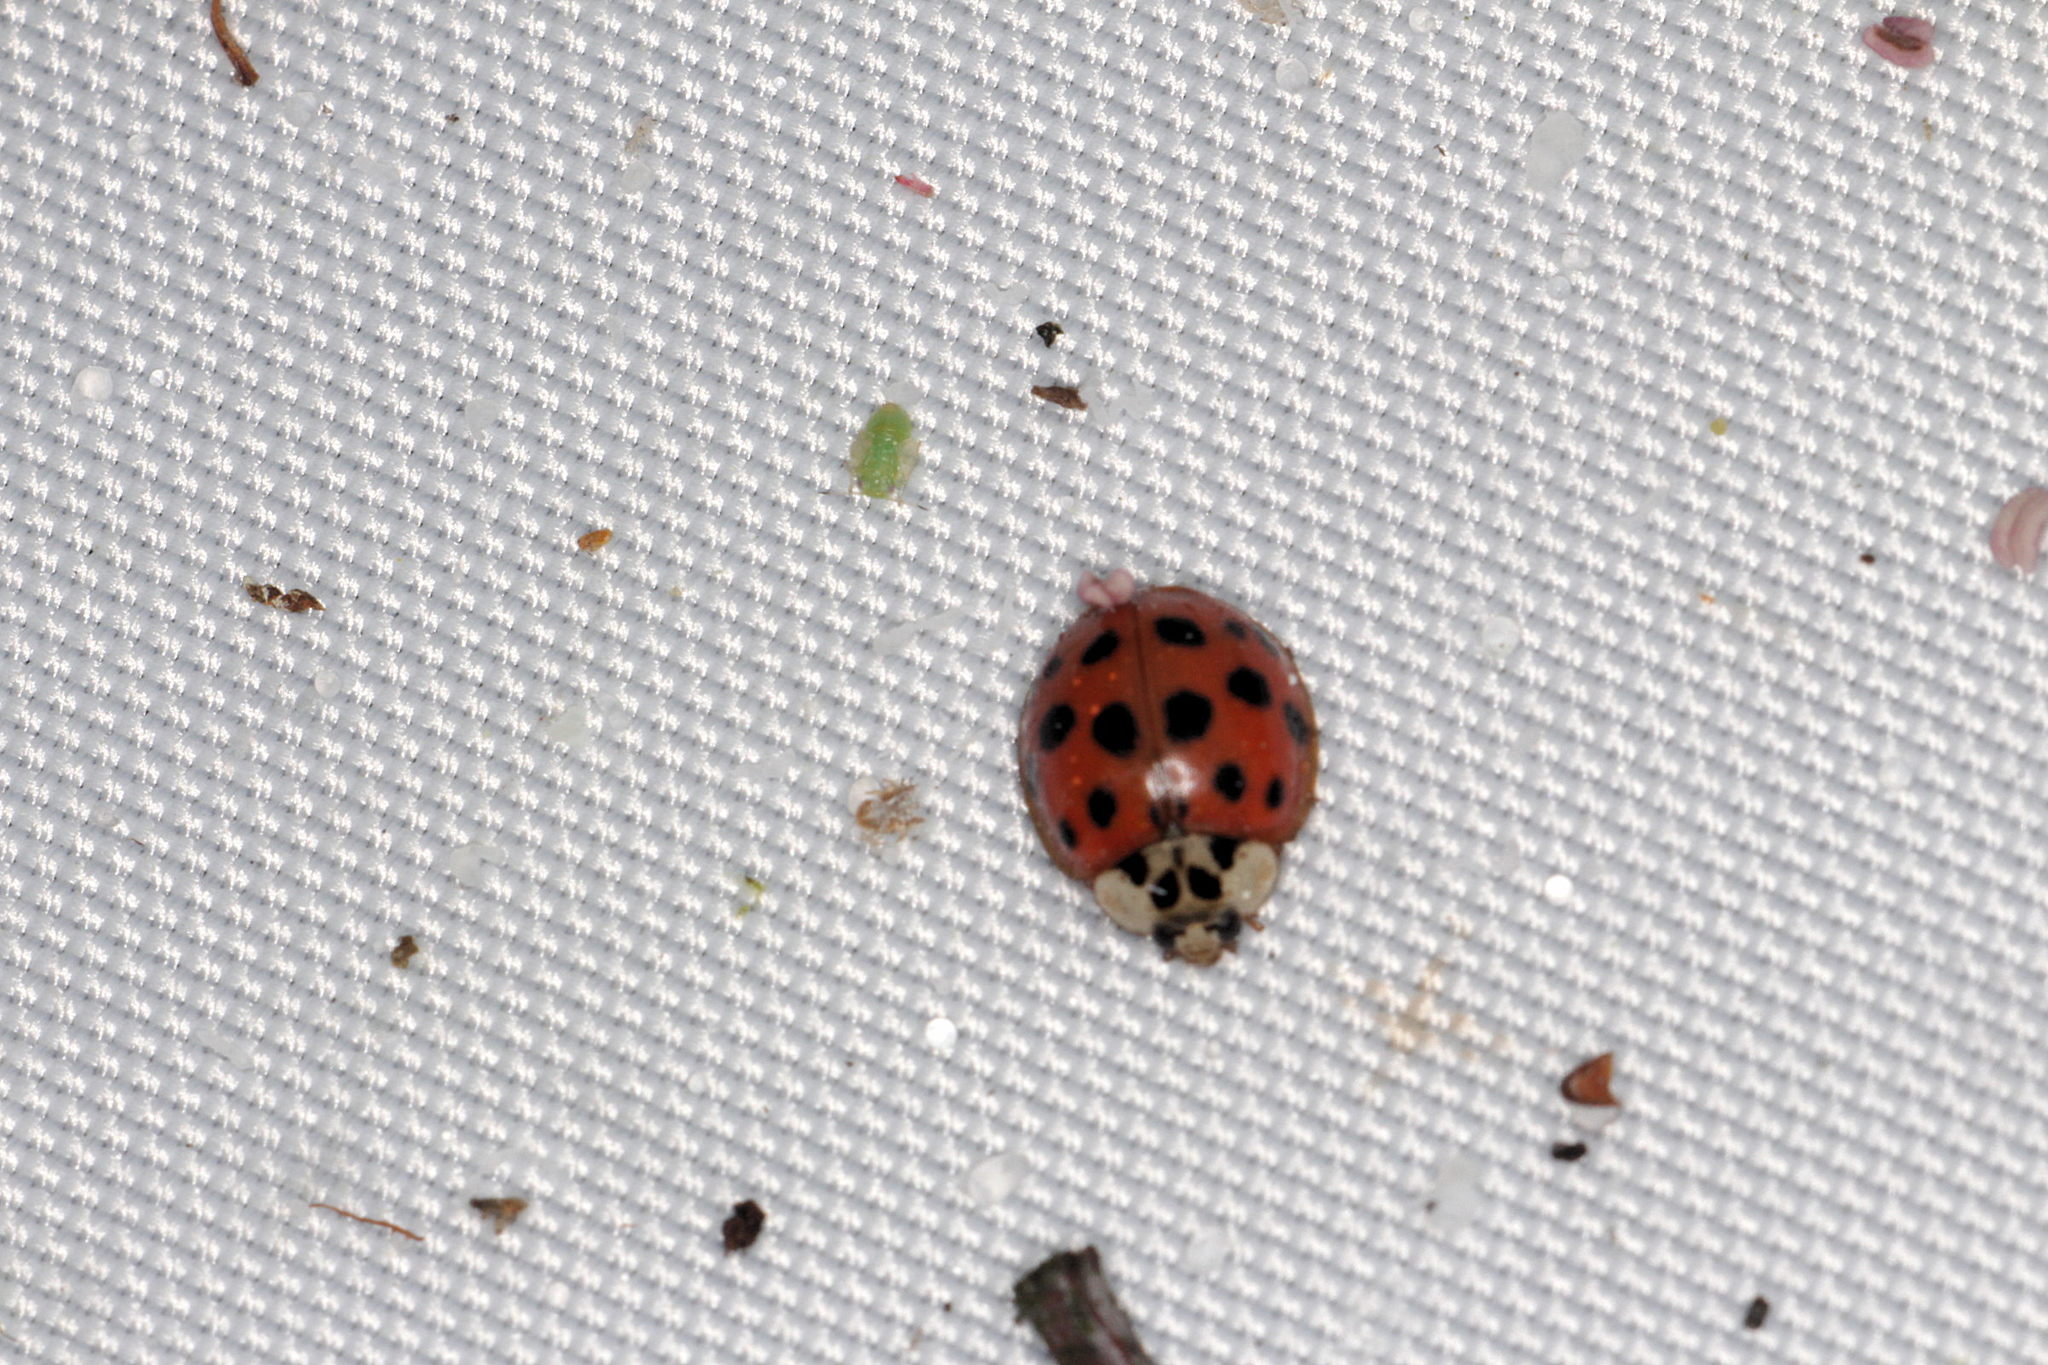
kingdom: Animalia
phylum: Arthropoda
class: Insecta
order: Coleoptera
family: Coccinellidae
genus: Harmonia
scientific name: Harmonia axyridis
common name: Harlequin ladybird
